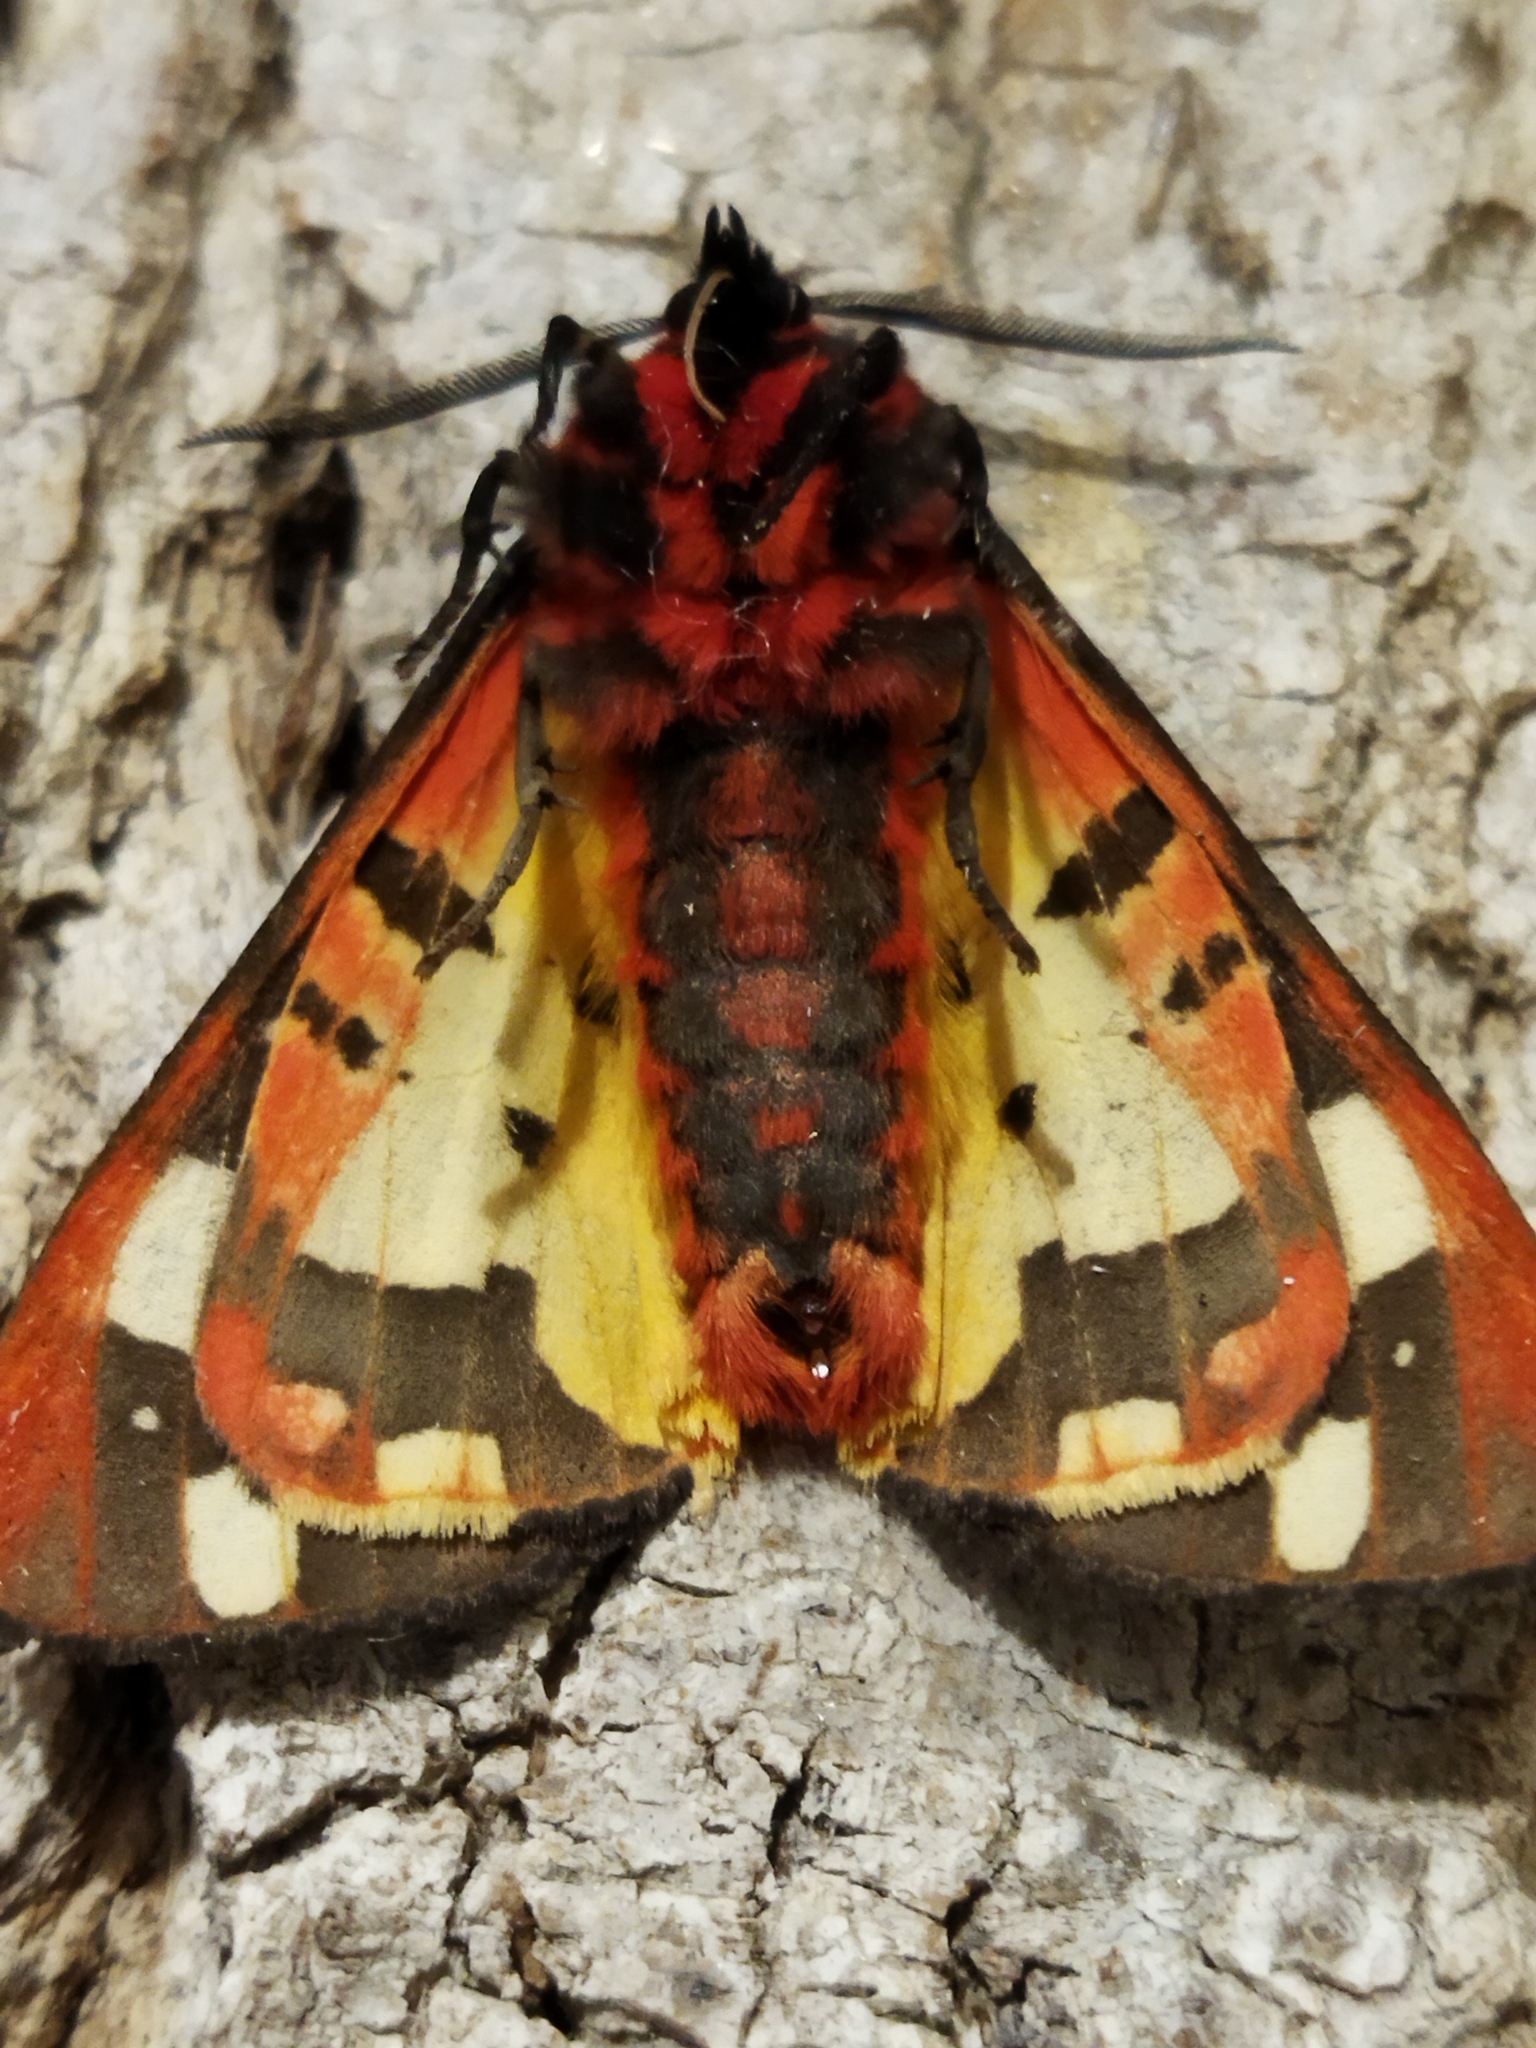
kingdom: Animalia
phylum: Arthropoda
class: Insecta
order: Lepidoptera
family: Erebidae
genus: Epicallia
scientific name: Epicallia villica
